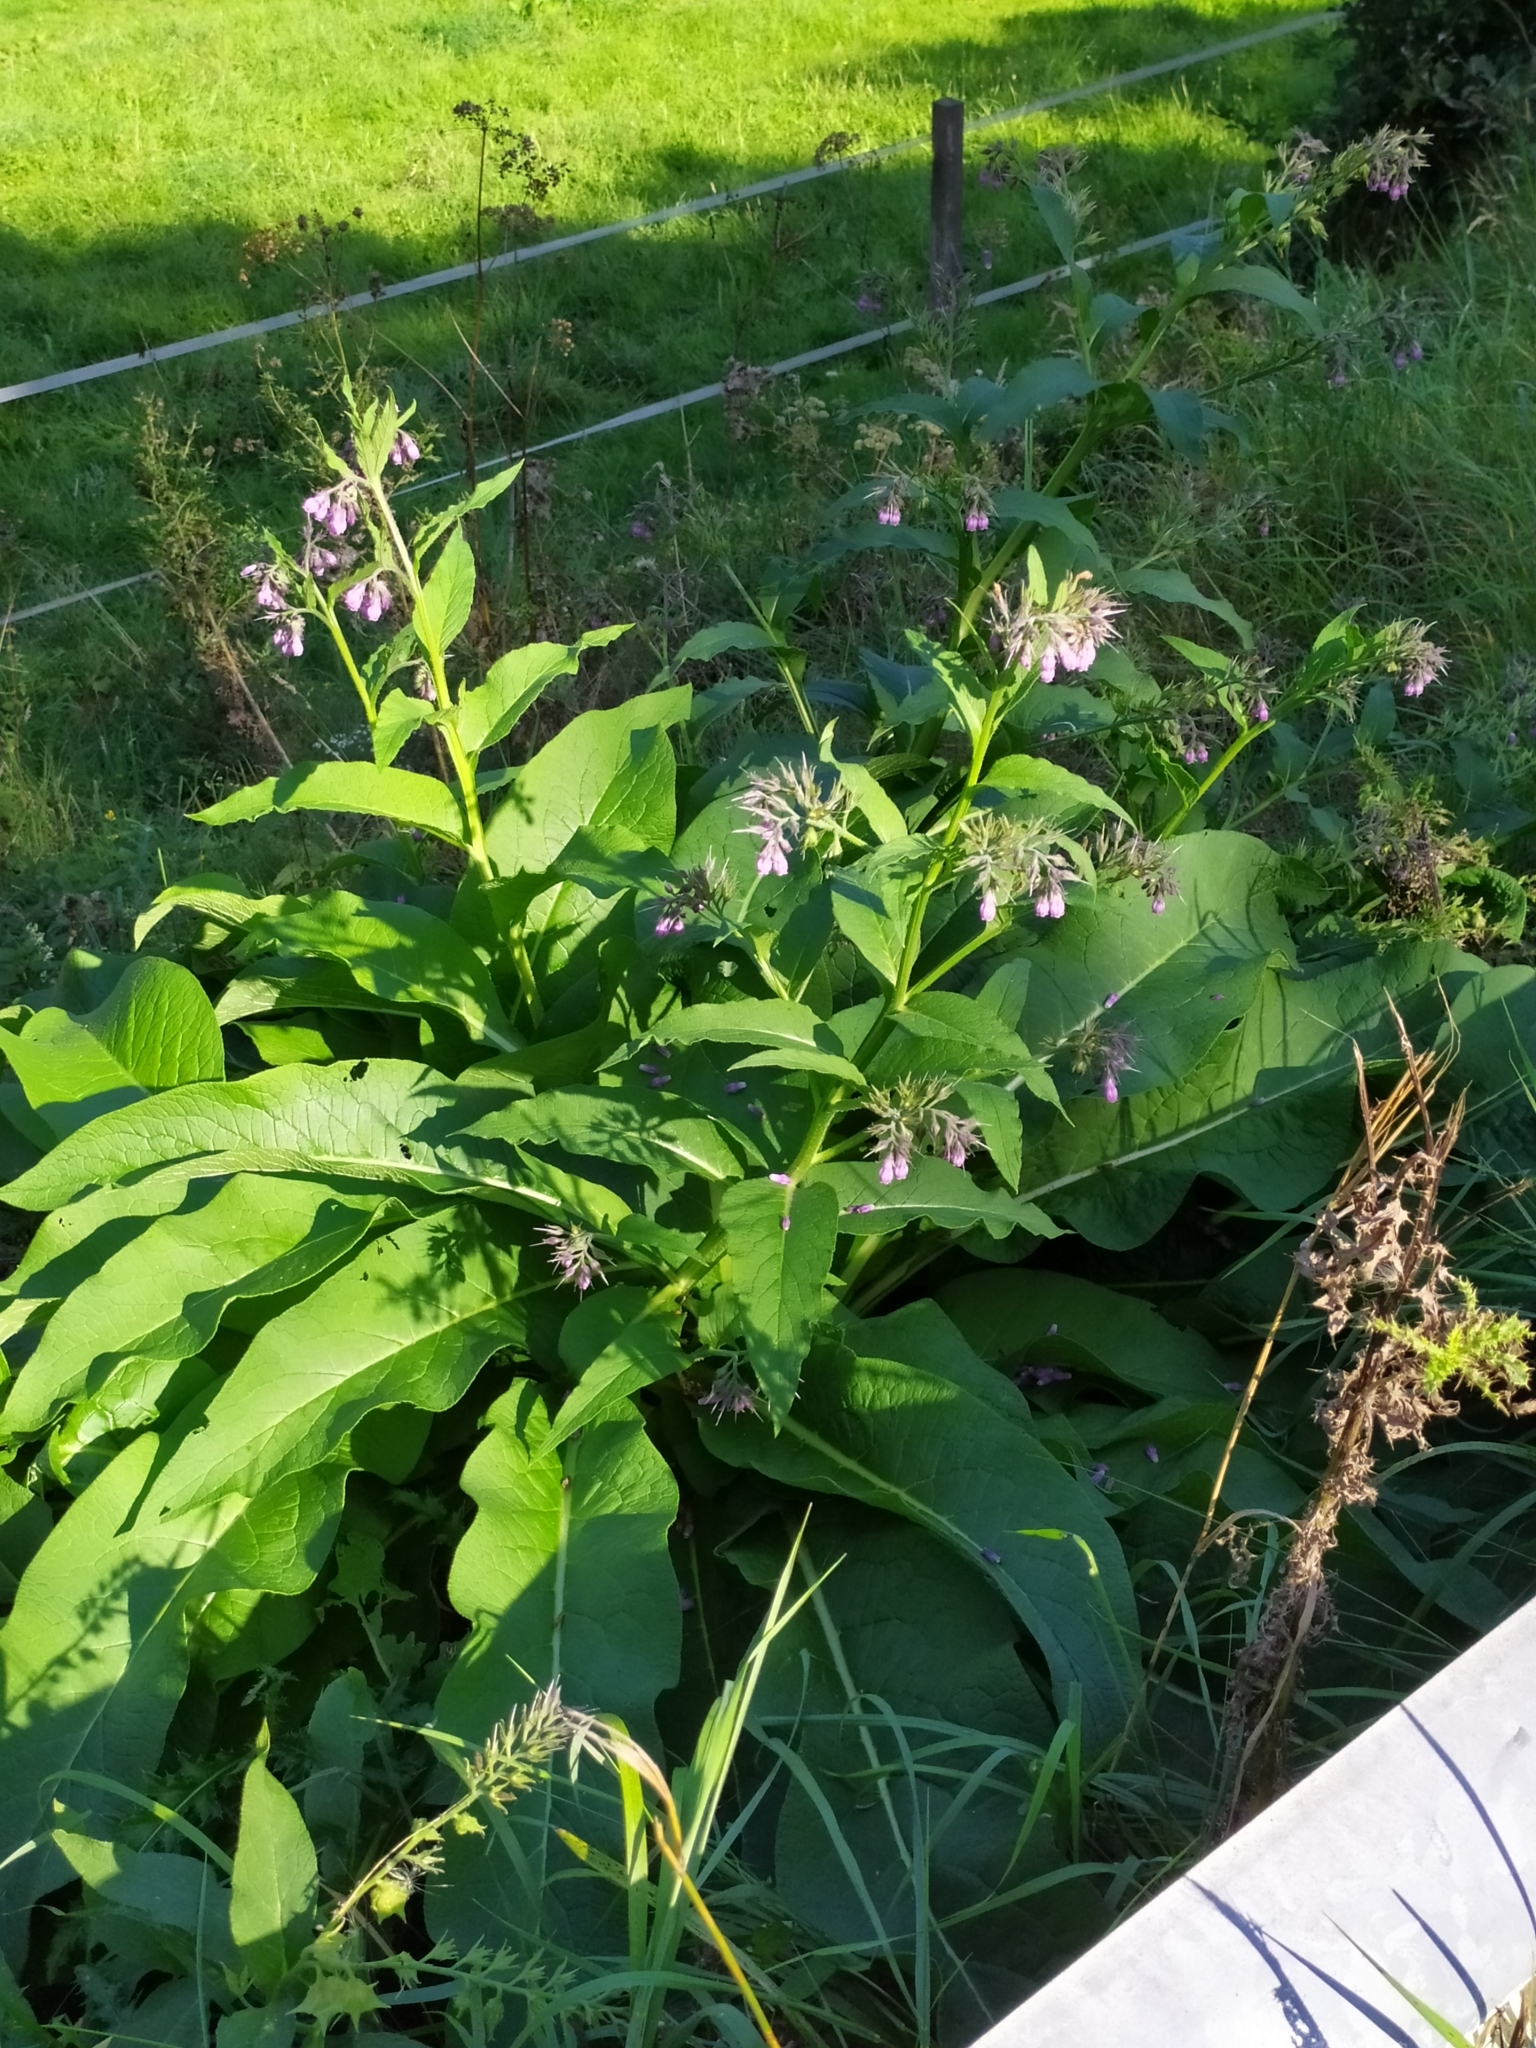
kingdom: Plantae
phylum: Tracheophyta
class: Magnoliopsida
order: Boraginales
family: Boraginaceae
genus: Symphytum
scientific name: Symphytum officinale
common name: Common comfrey
